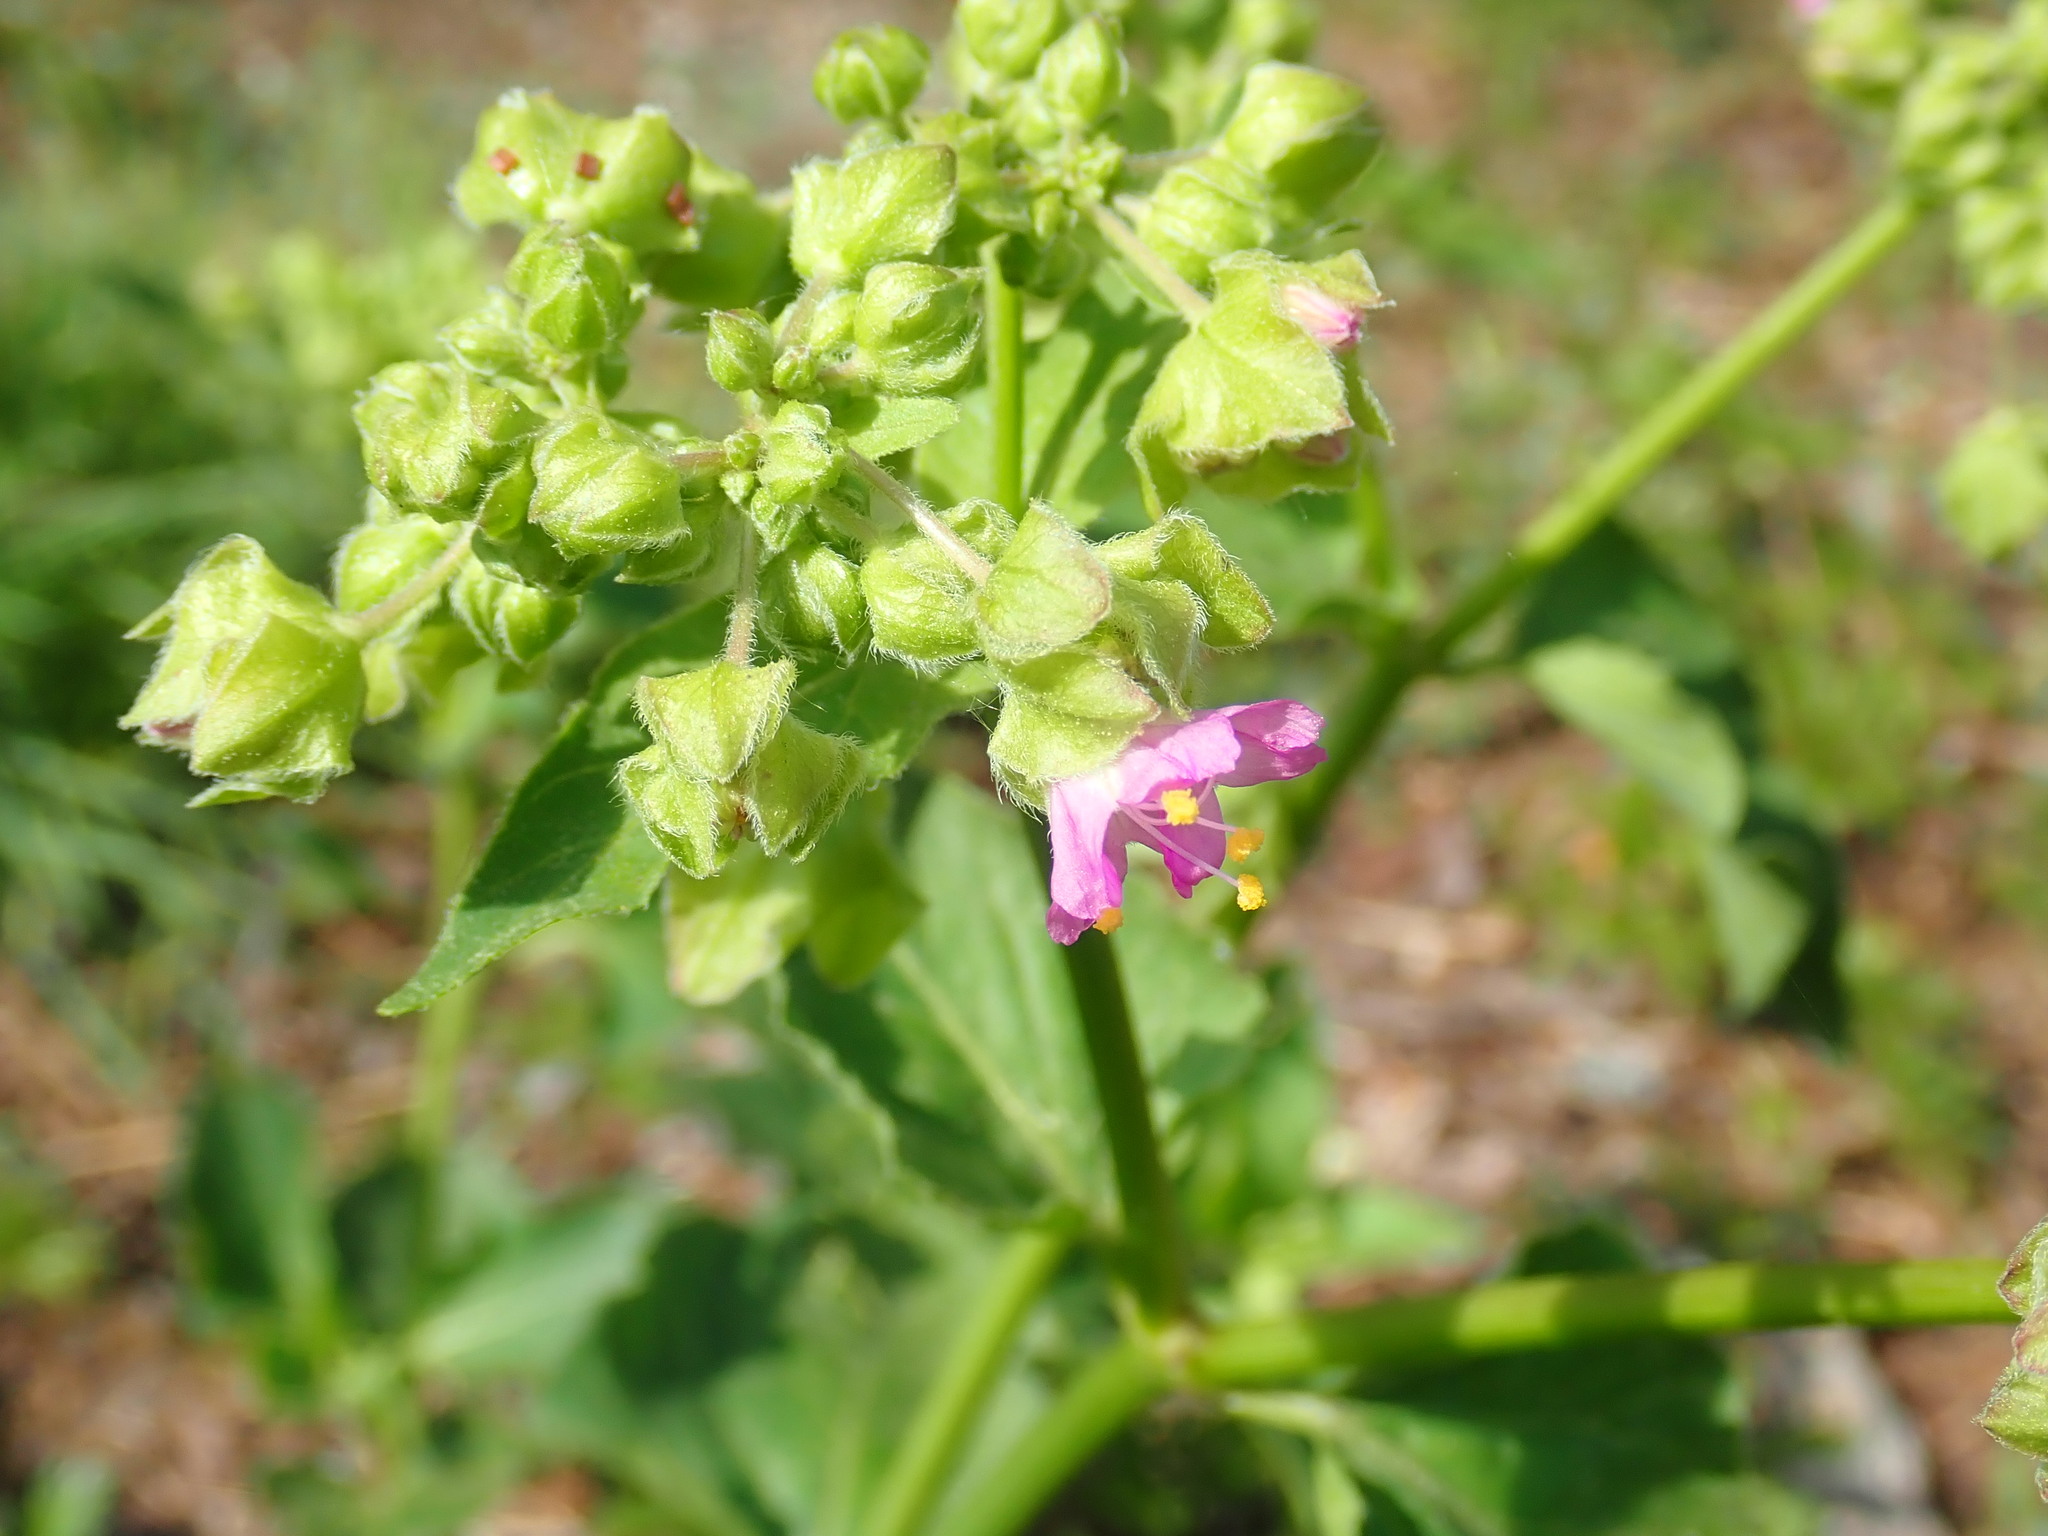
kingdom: Plantae
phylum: Tracheophyta
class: Magnoliopsida
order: Caryophyllales
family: Nyctaginaceae
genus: Mirabilis
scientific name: Mirabilis nyctaginea
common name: Umbrella wort
